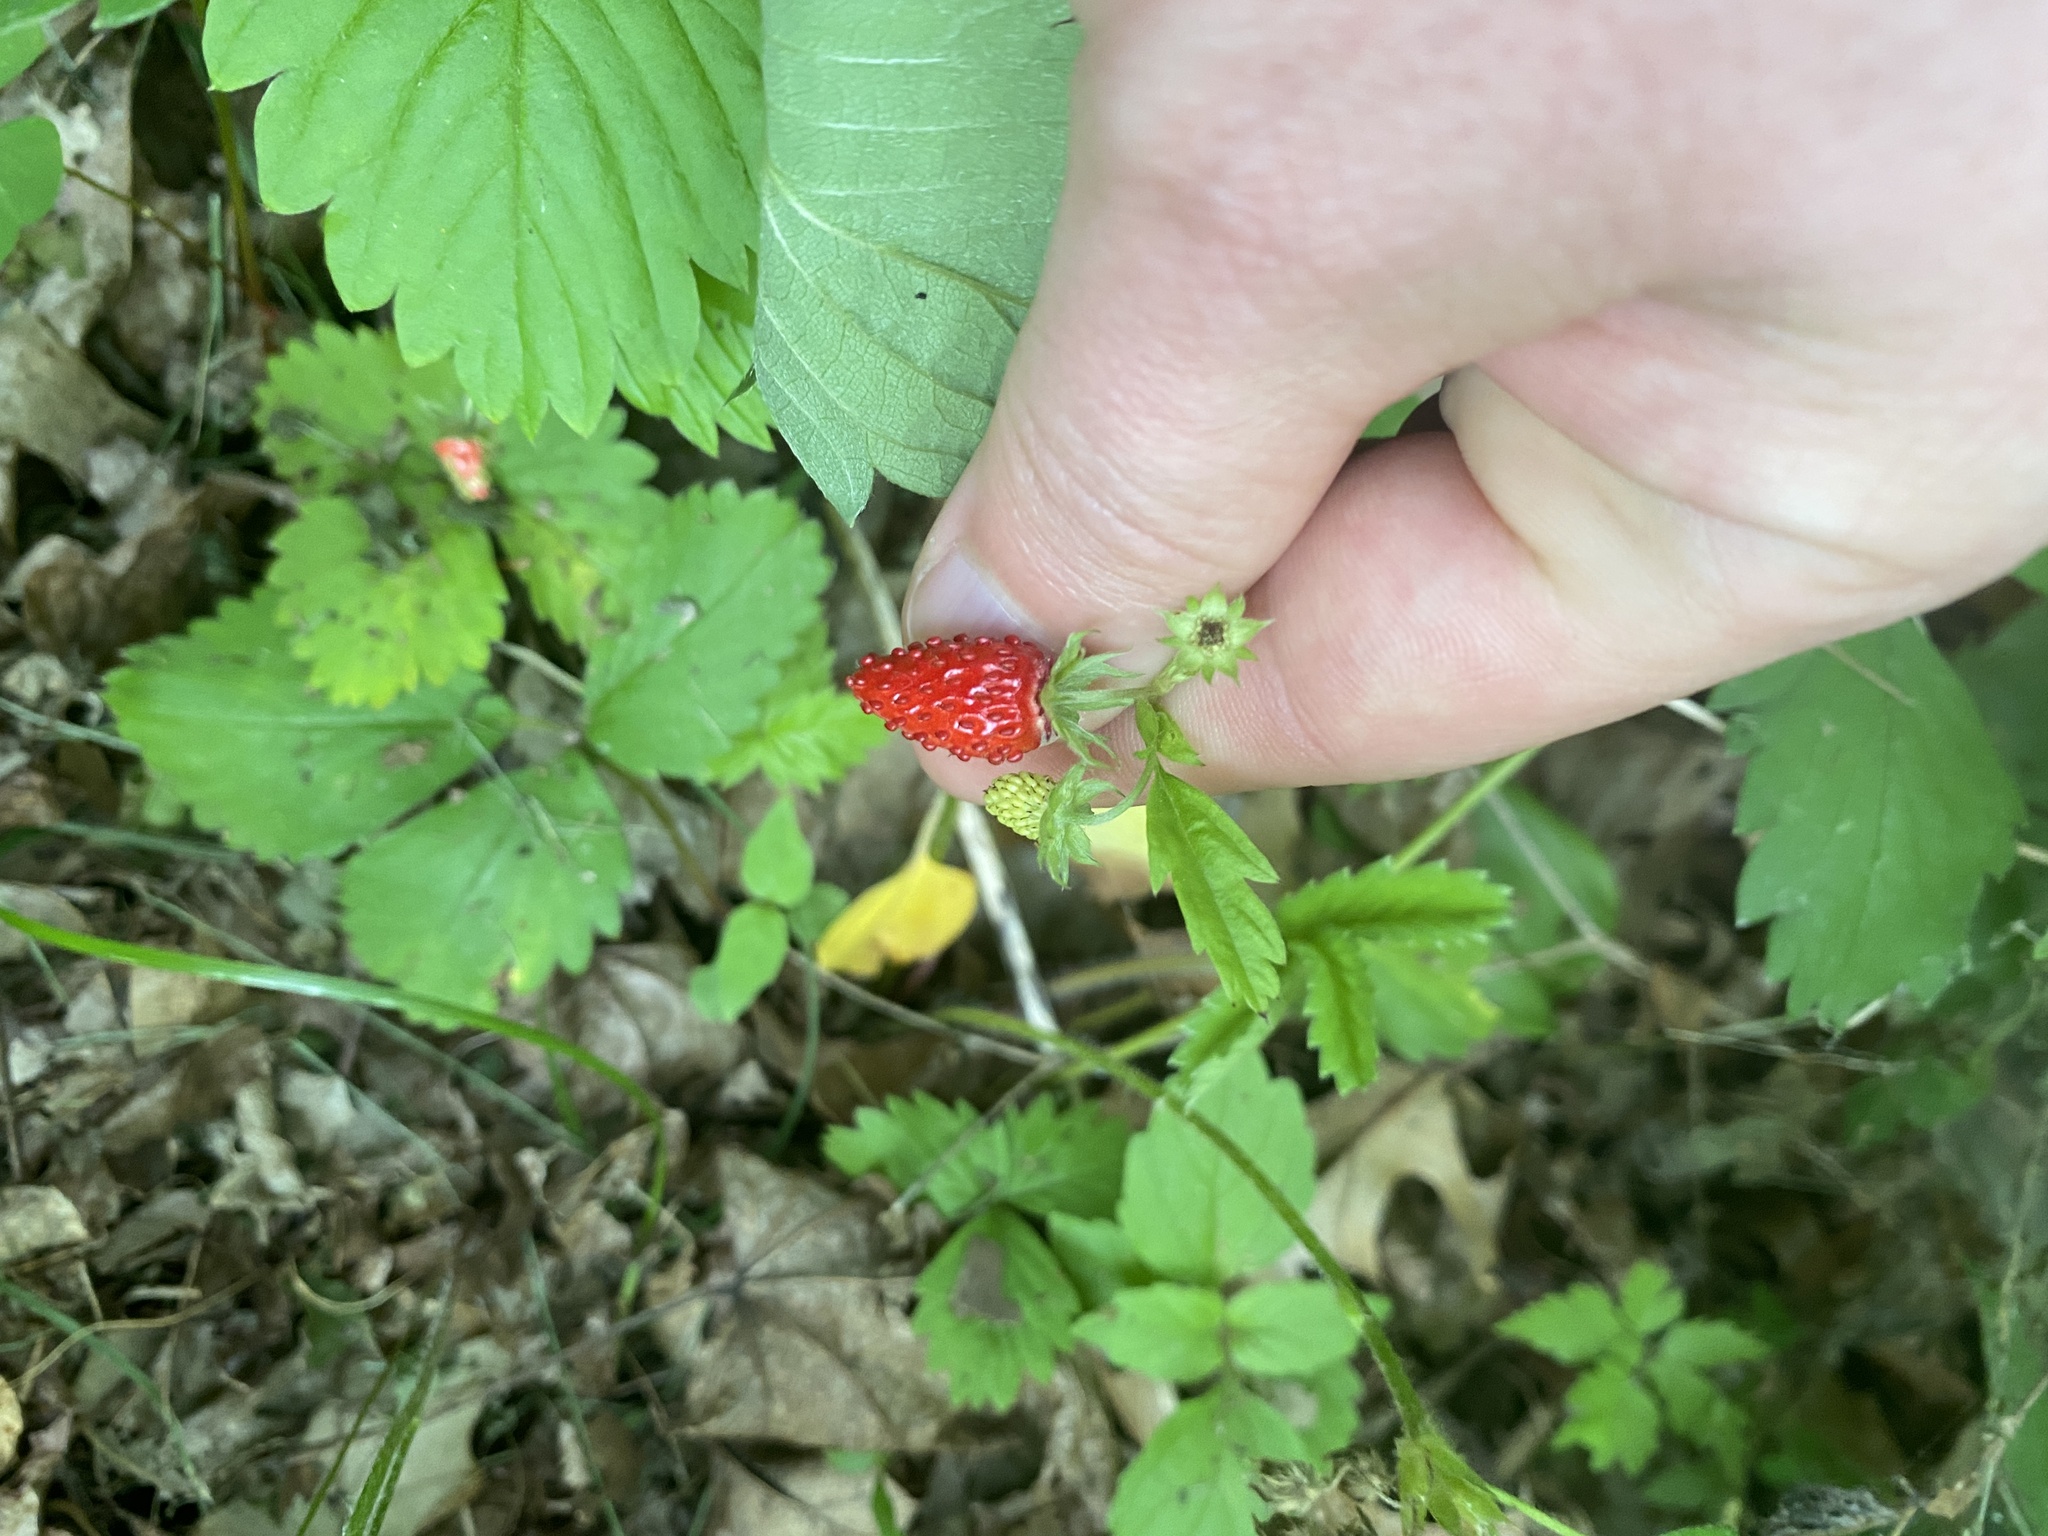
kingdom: Plantae
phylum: Tracheophyta
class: Magnoliopsida
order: Rosales
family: Rosaceae
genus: Fragaria
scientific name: Fragaria vesca
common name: Wild strawberry
